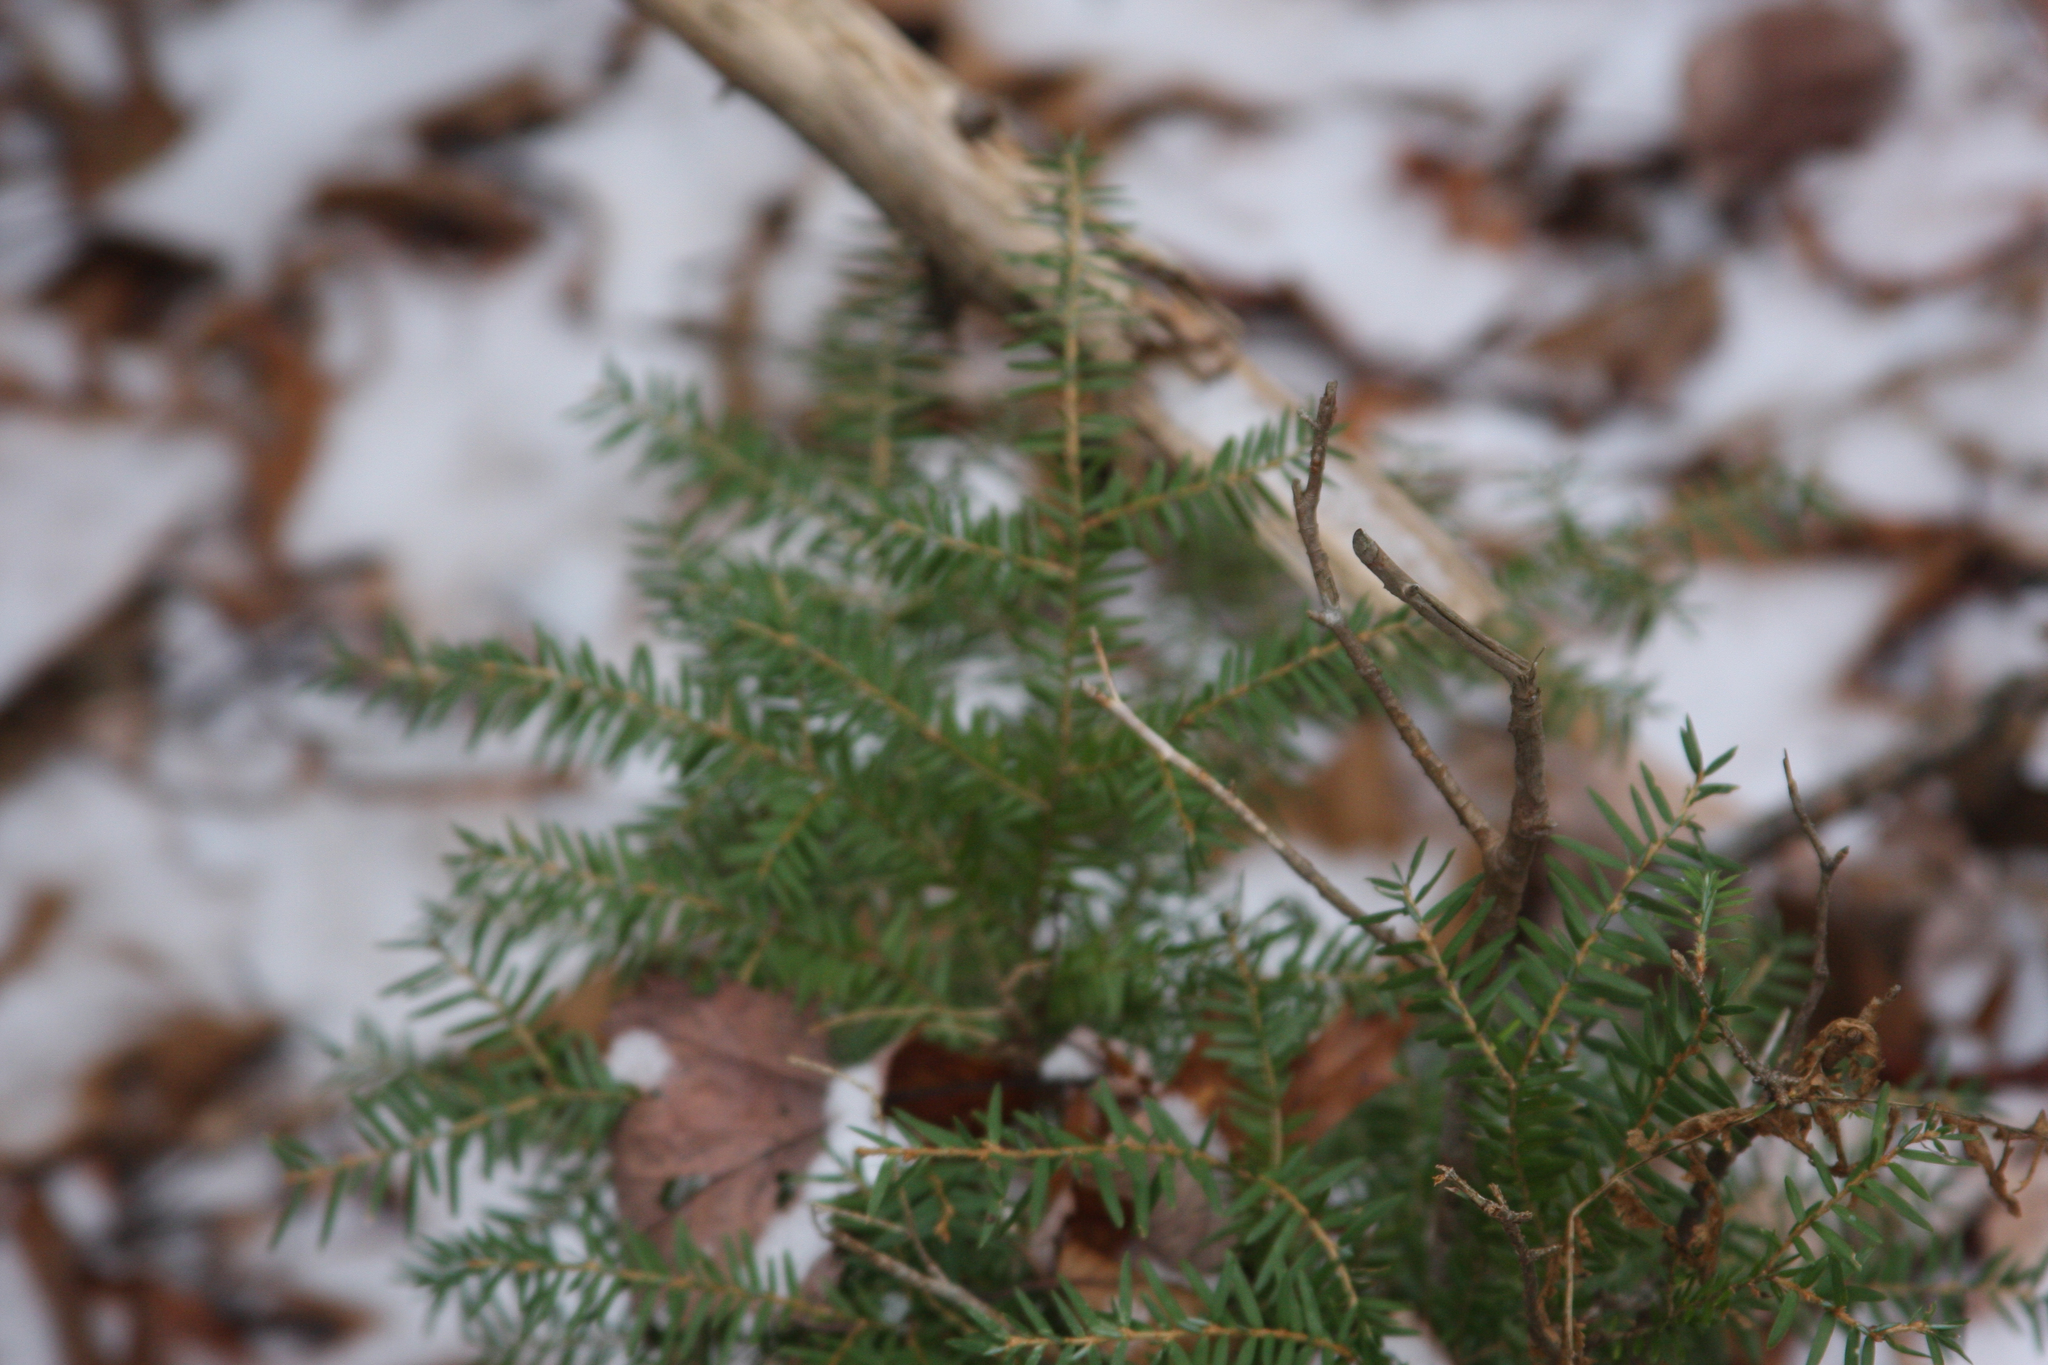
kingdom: Plantae
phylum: Tracheophyta
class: Pinopsida
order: Pinales
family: Pinaceae
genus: Tsuga
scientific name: Tsuga canadensis
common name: Eastern hemlock
